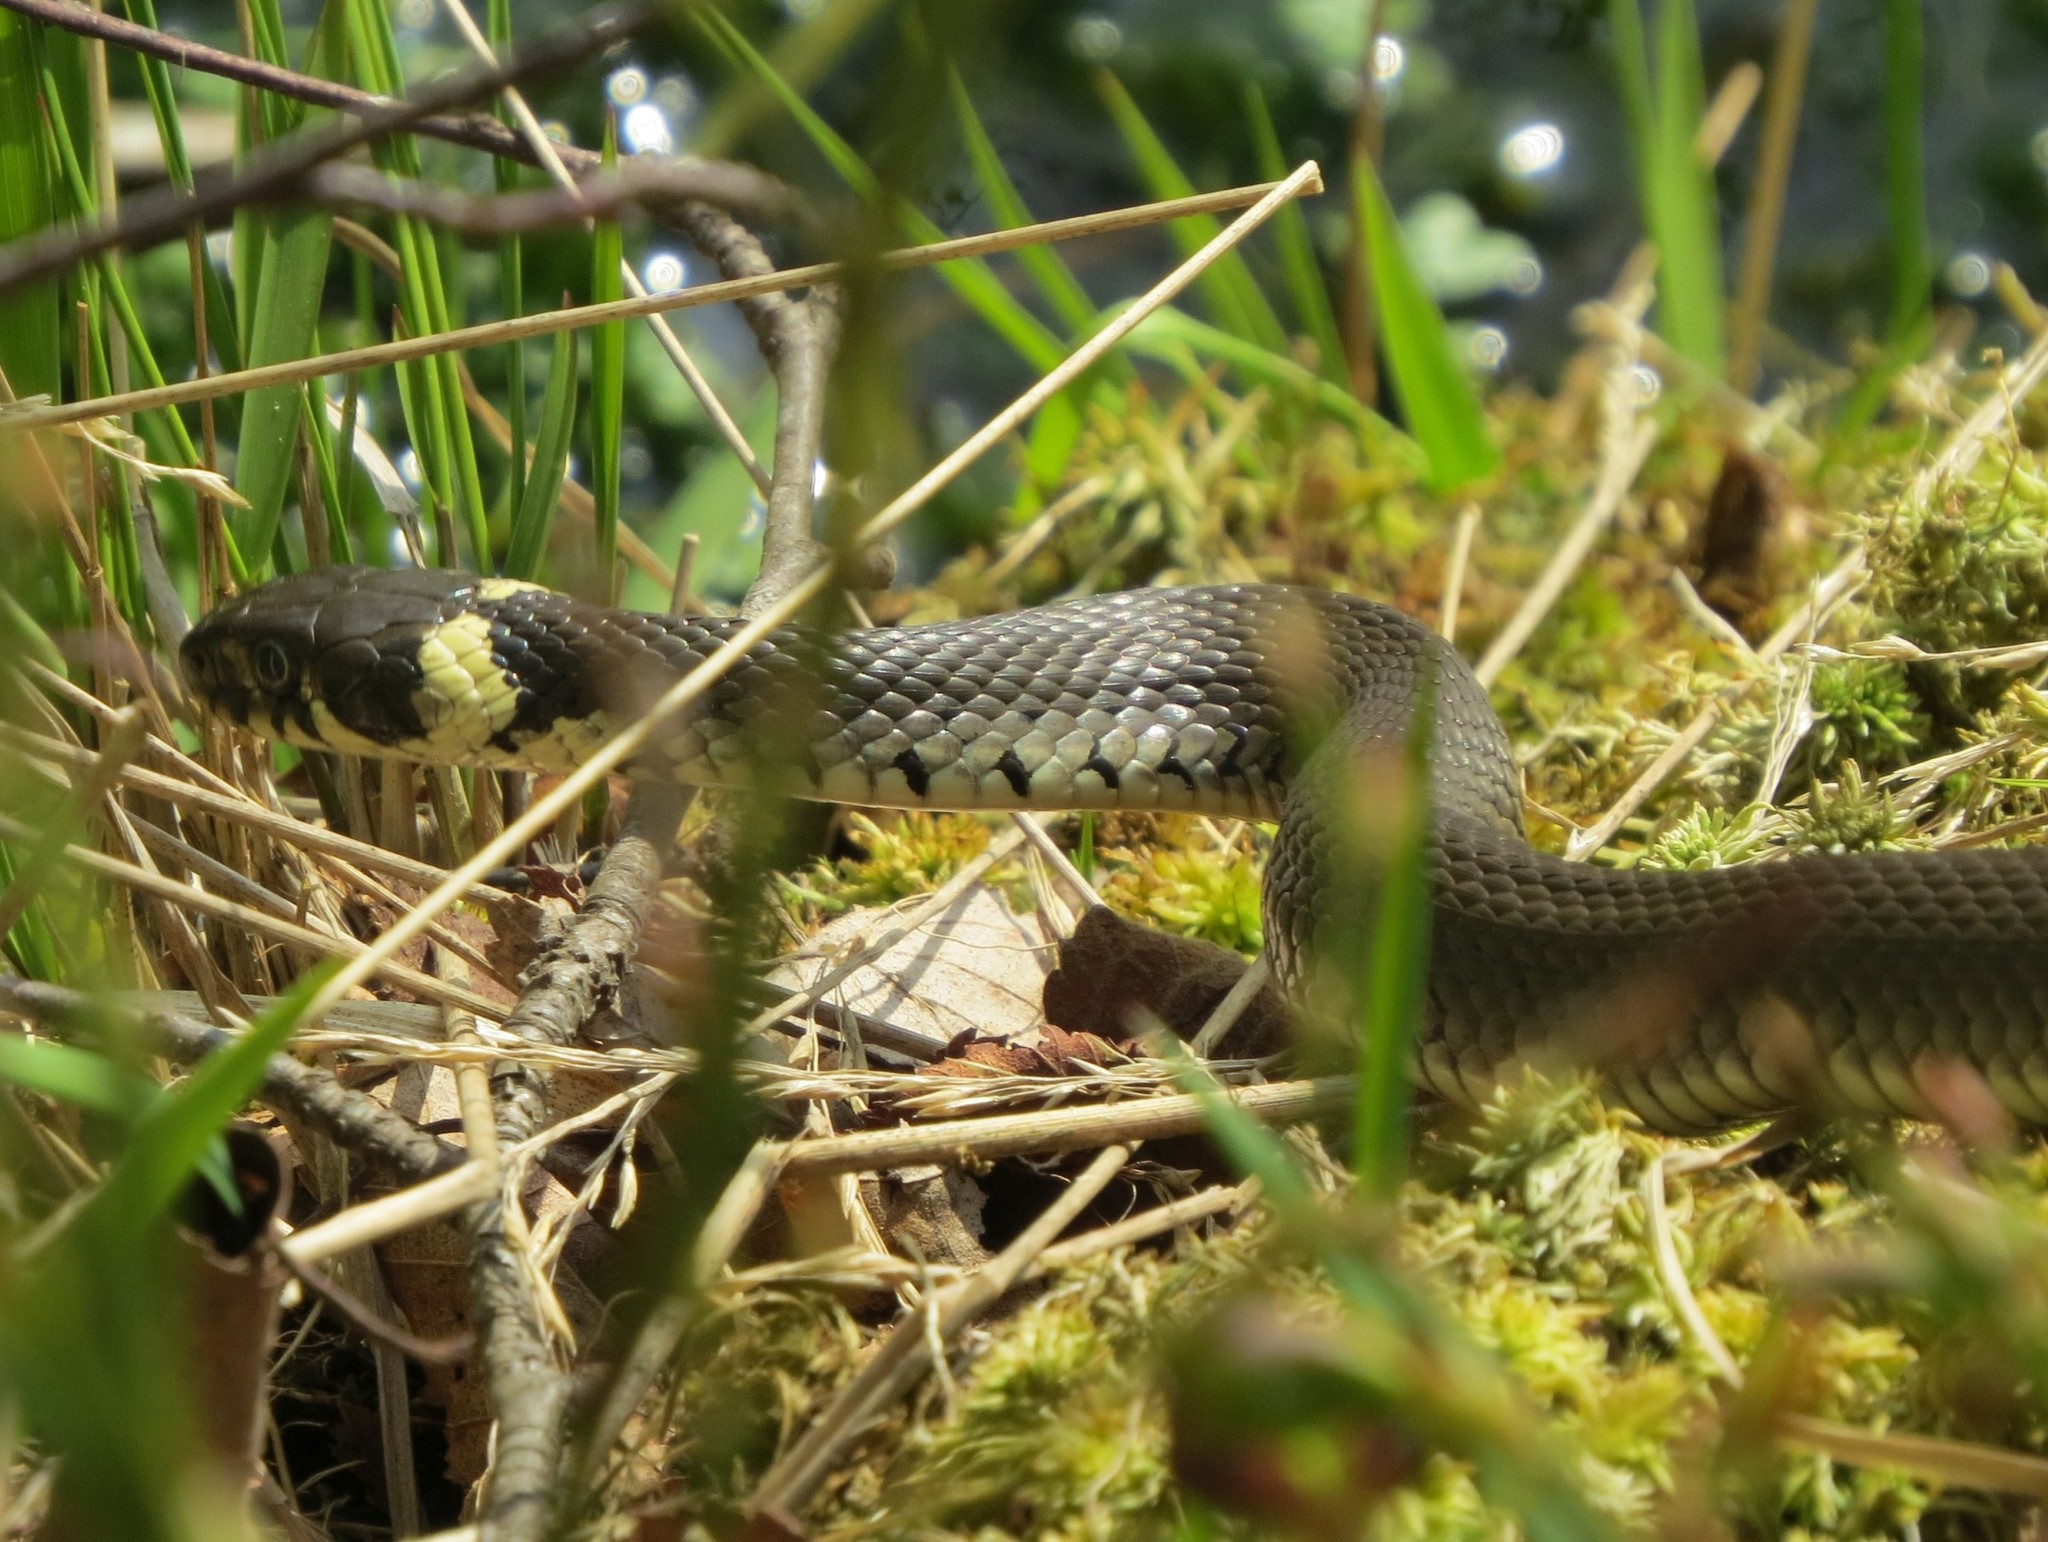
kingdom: Animalia
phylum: Chordata
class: Squamata
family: Colubridae
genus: Natrix
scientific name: Natrix natrix
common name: Grass snake
